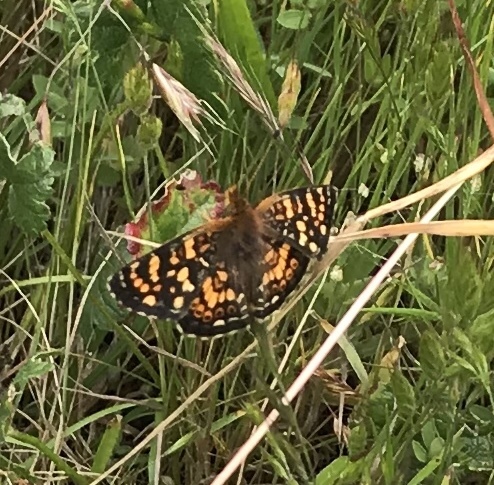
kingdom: Animalia
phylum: Arthropoda
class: Insecta
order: Lepidoptera
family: Nymphalidae
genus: Phyciodes
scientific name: Phyciodes tharos
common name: Pearl crescent
